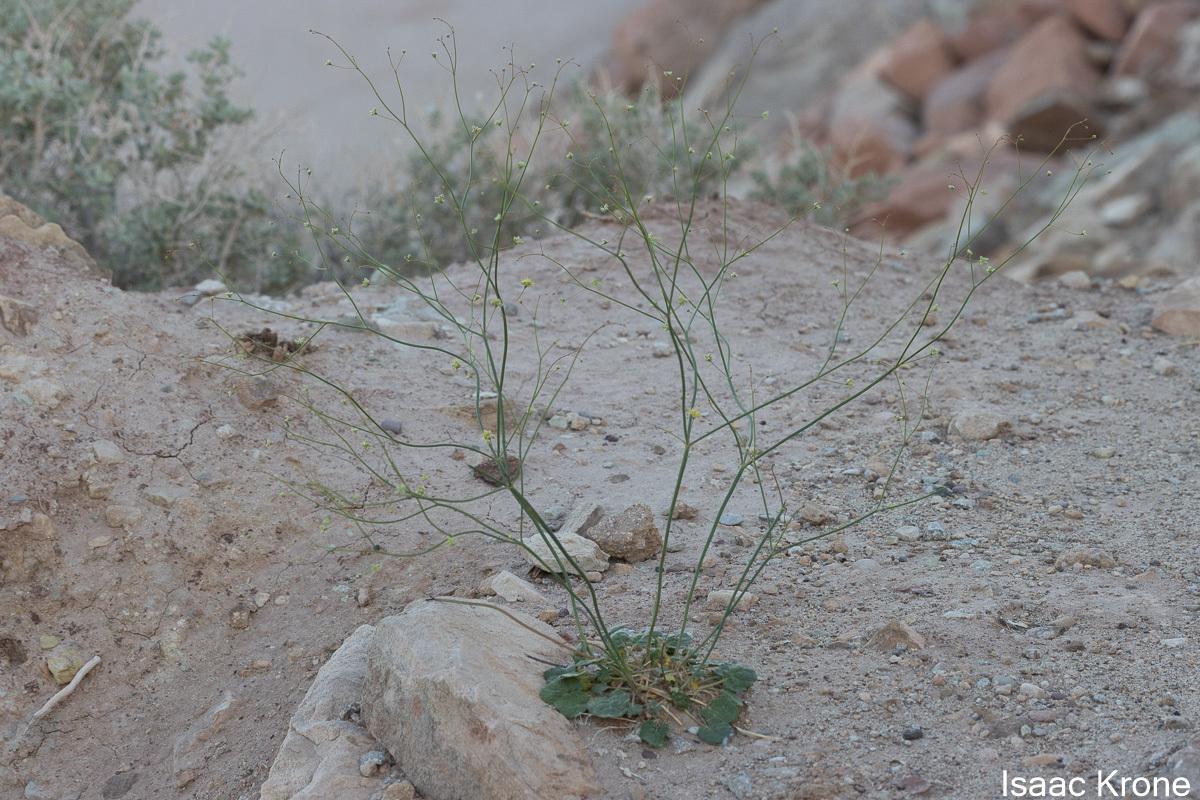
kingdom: Plantae
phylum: Tracheophyta
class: Magnoliopsida
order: Caryophyllales
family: Polygonaceae
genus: Eriogonum
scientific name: Eriogonum inflatum
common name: Desert trumpet
